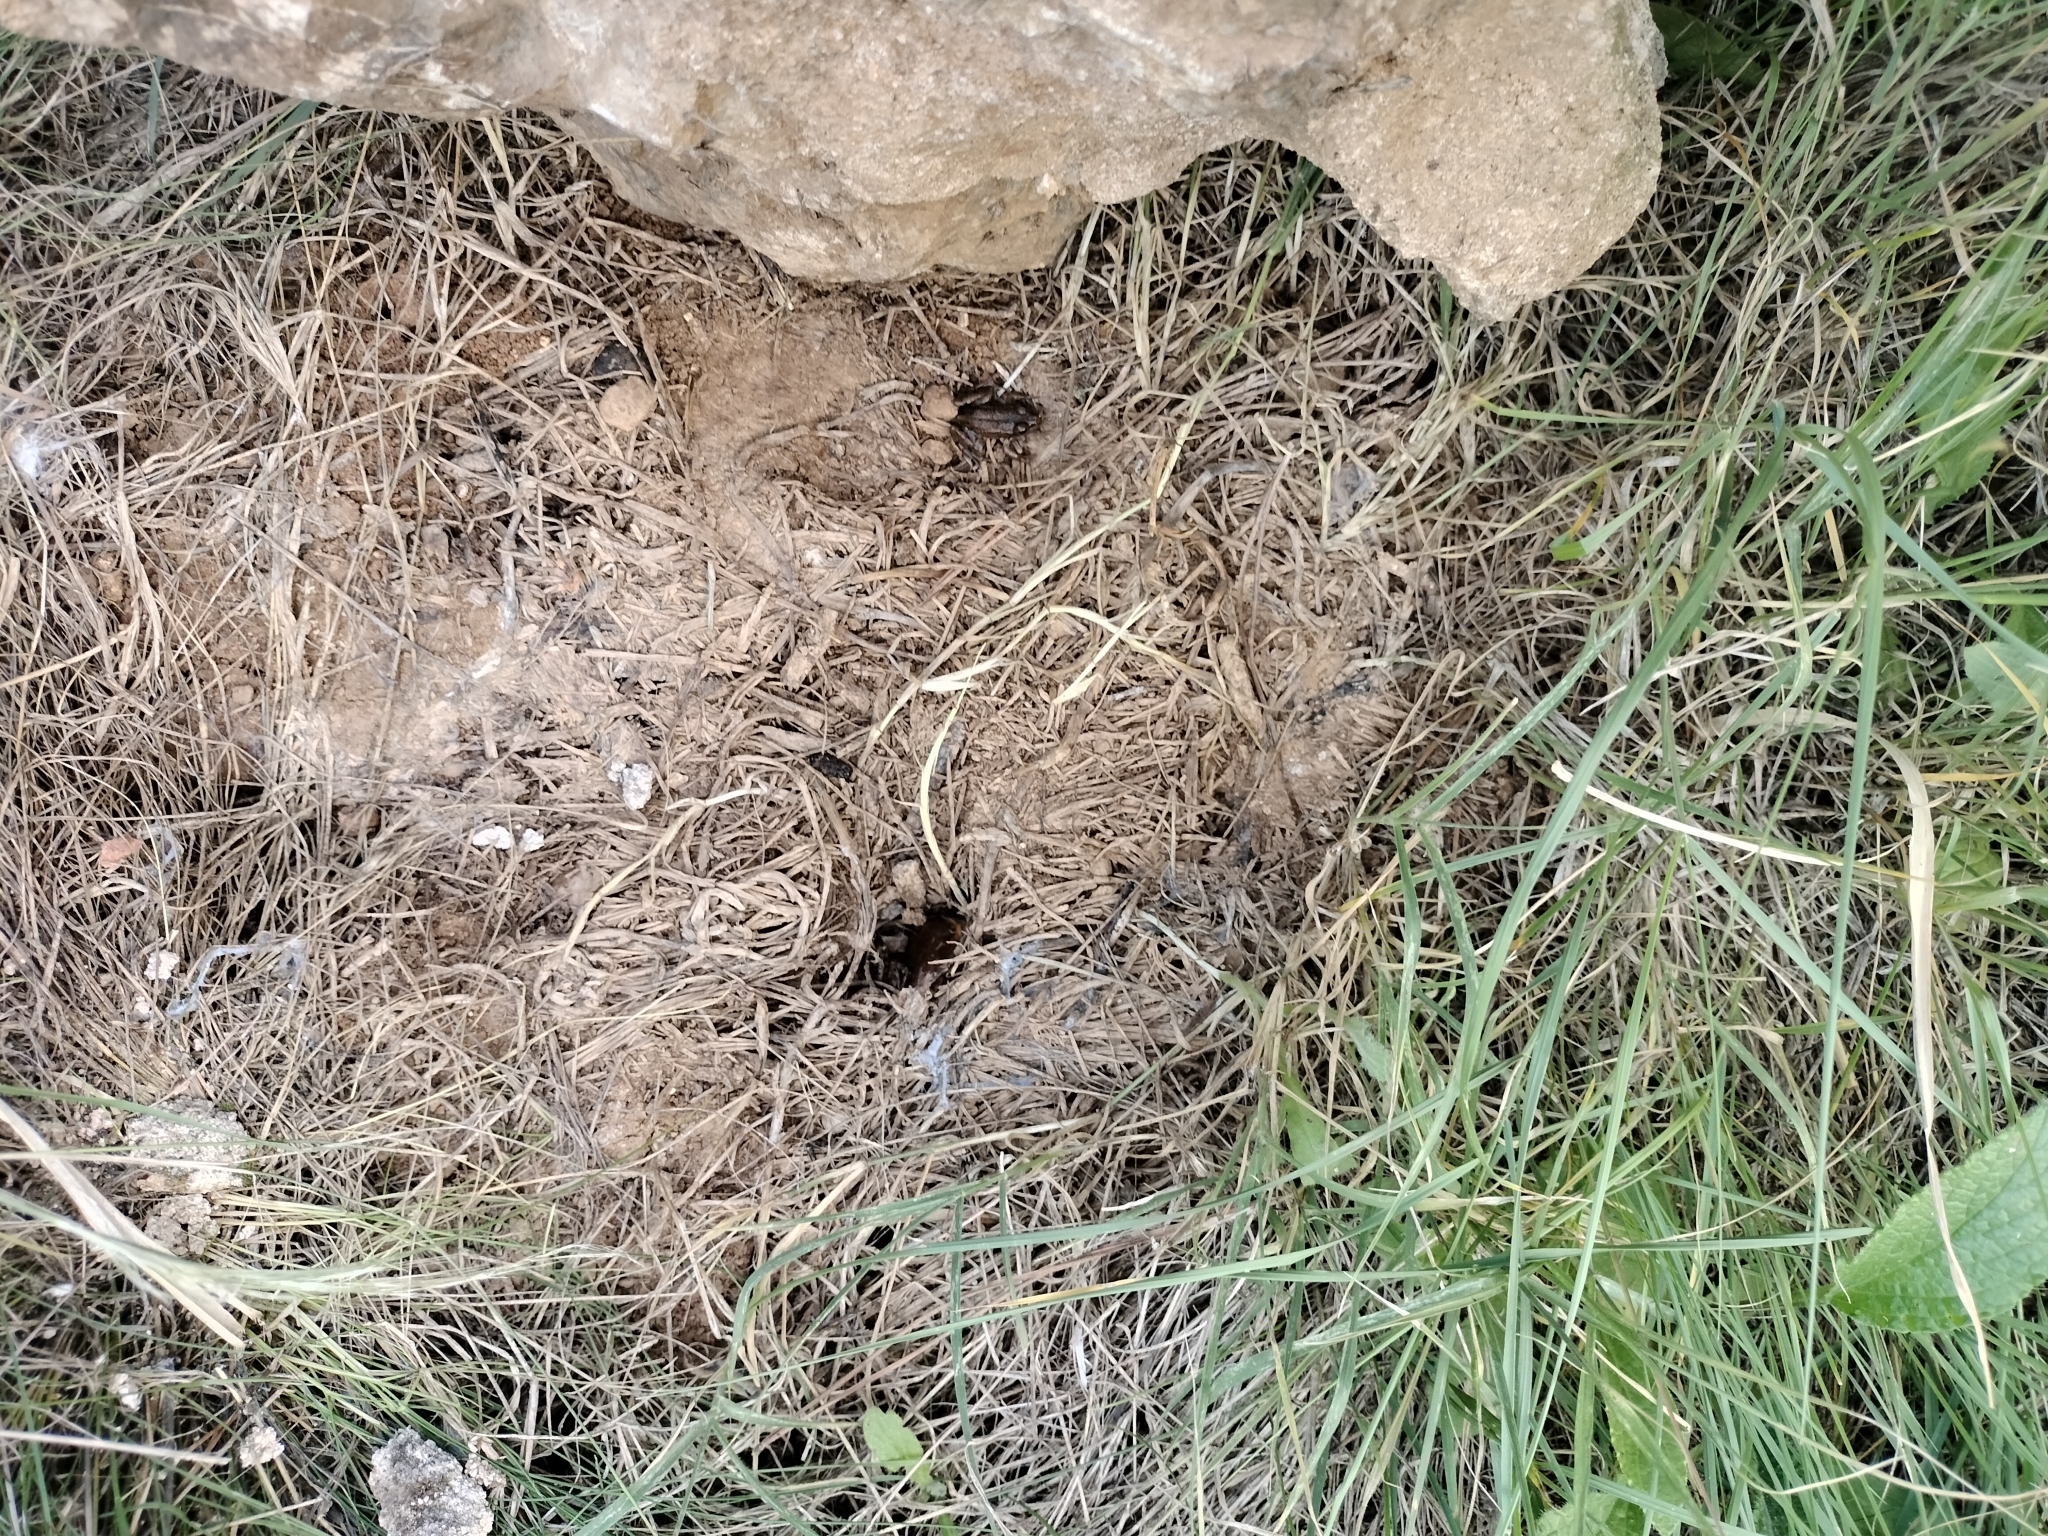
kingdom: Animalia
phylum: Chordata
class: Amphibia
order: Anura
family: Ranidae
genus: Pelophylax
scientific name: Pelophylax perezi
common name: Perez's frog
